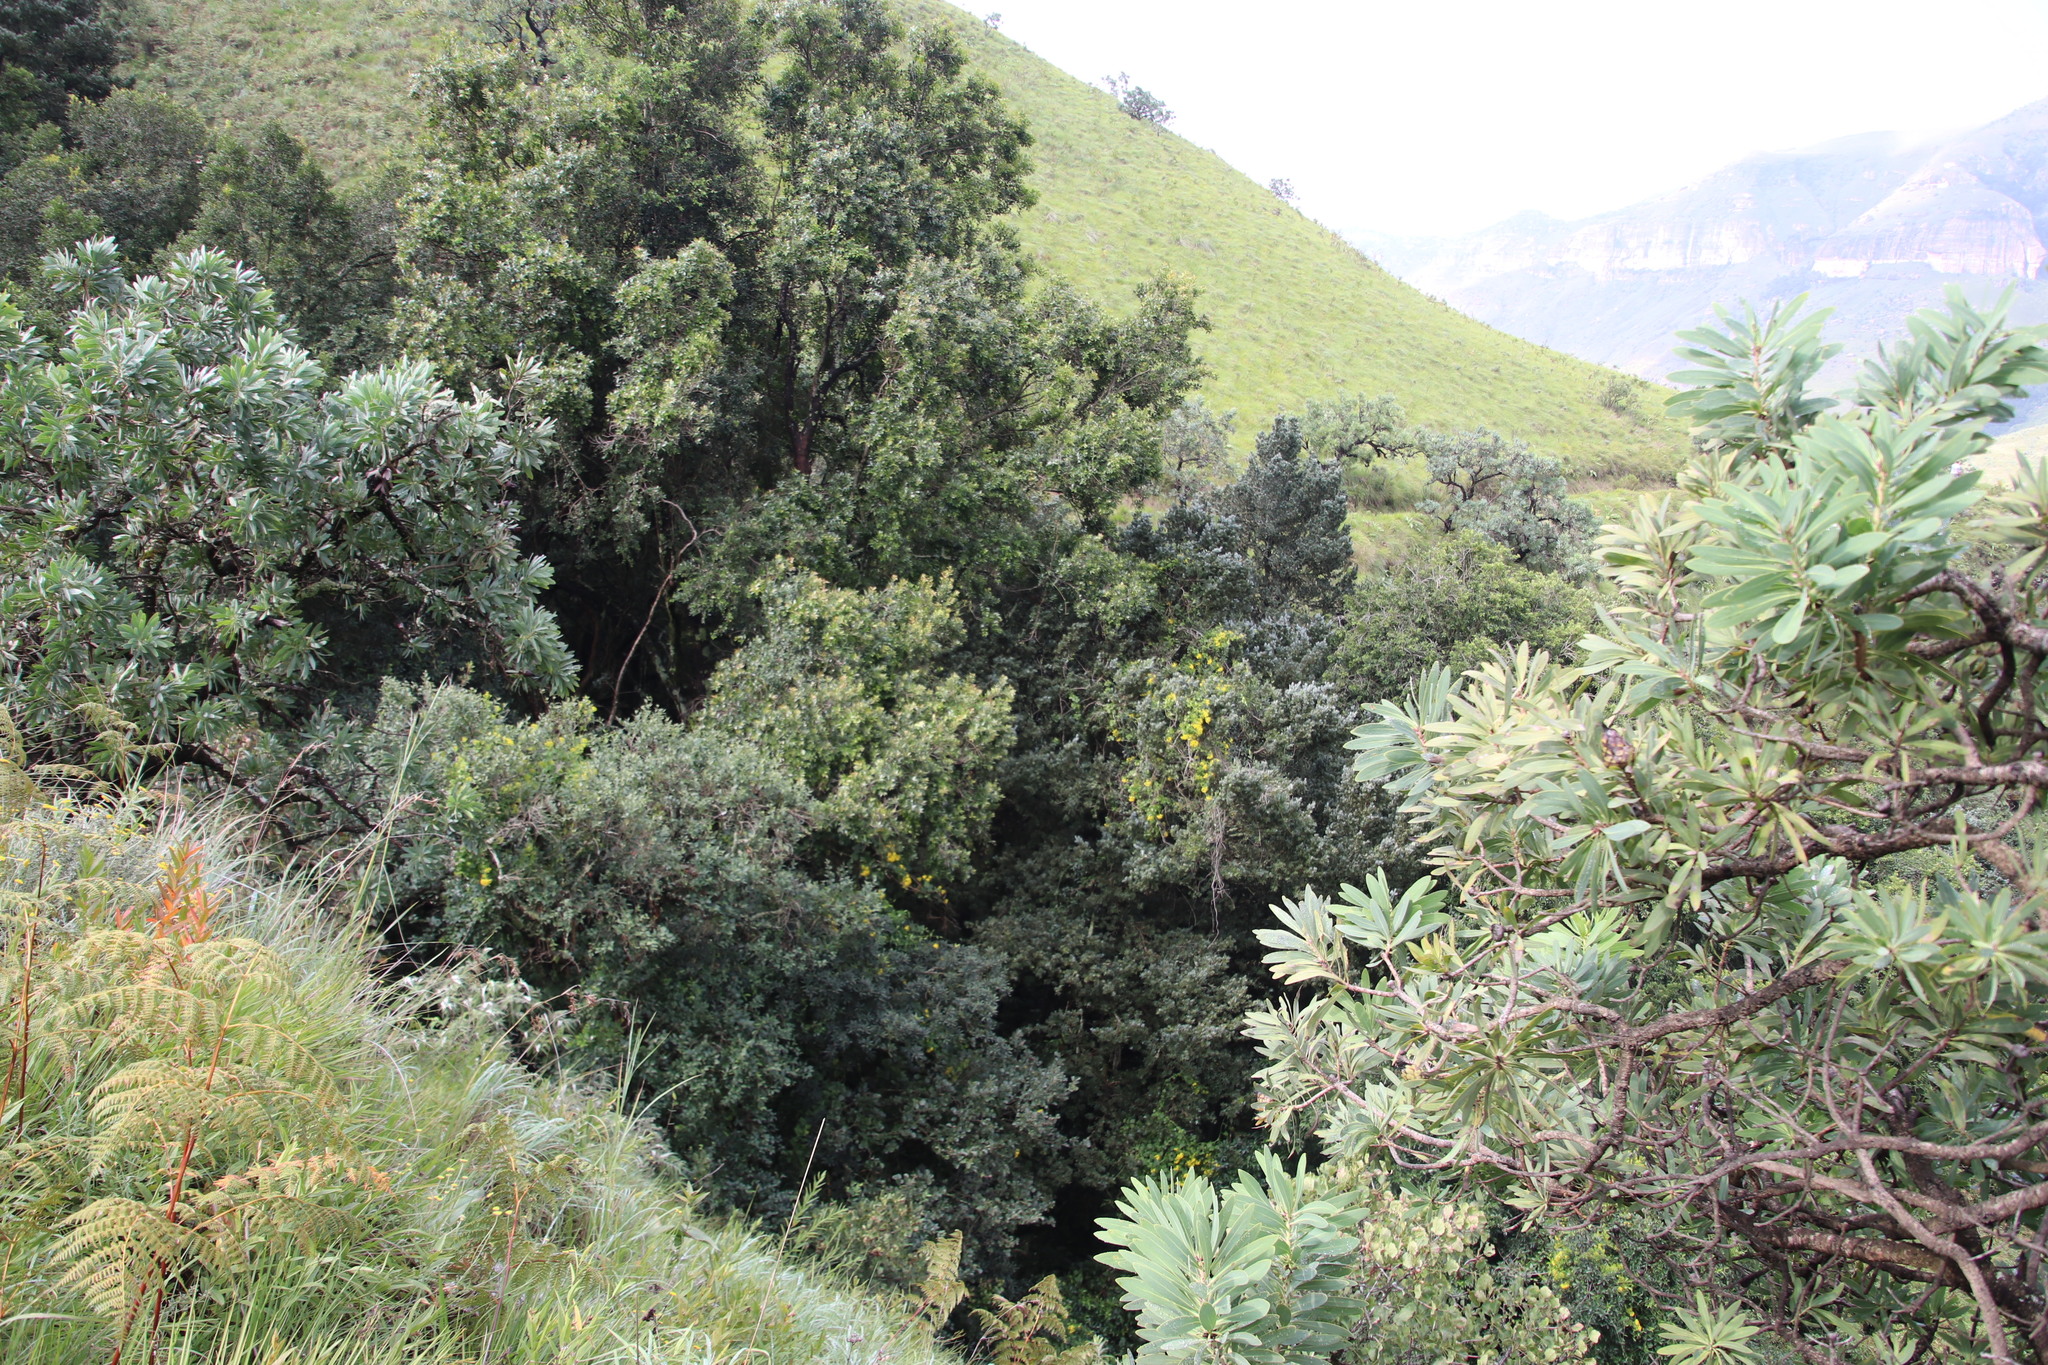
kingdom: Plantae
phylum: Tracheophyta
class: Magnoliopsida
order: Asterales
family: Asteraceae
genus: Senecio
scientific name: Senecio tamoides
